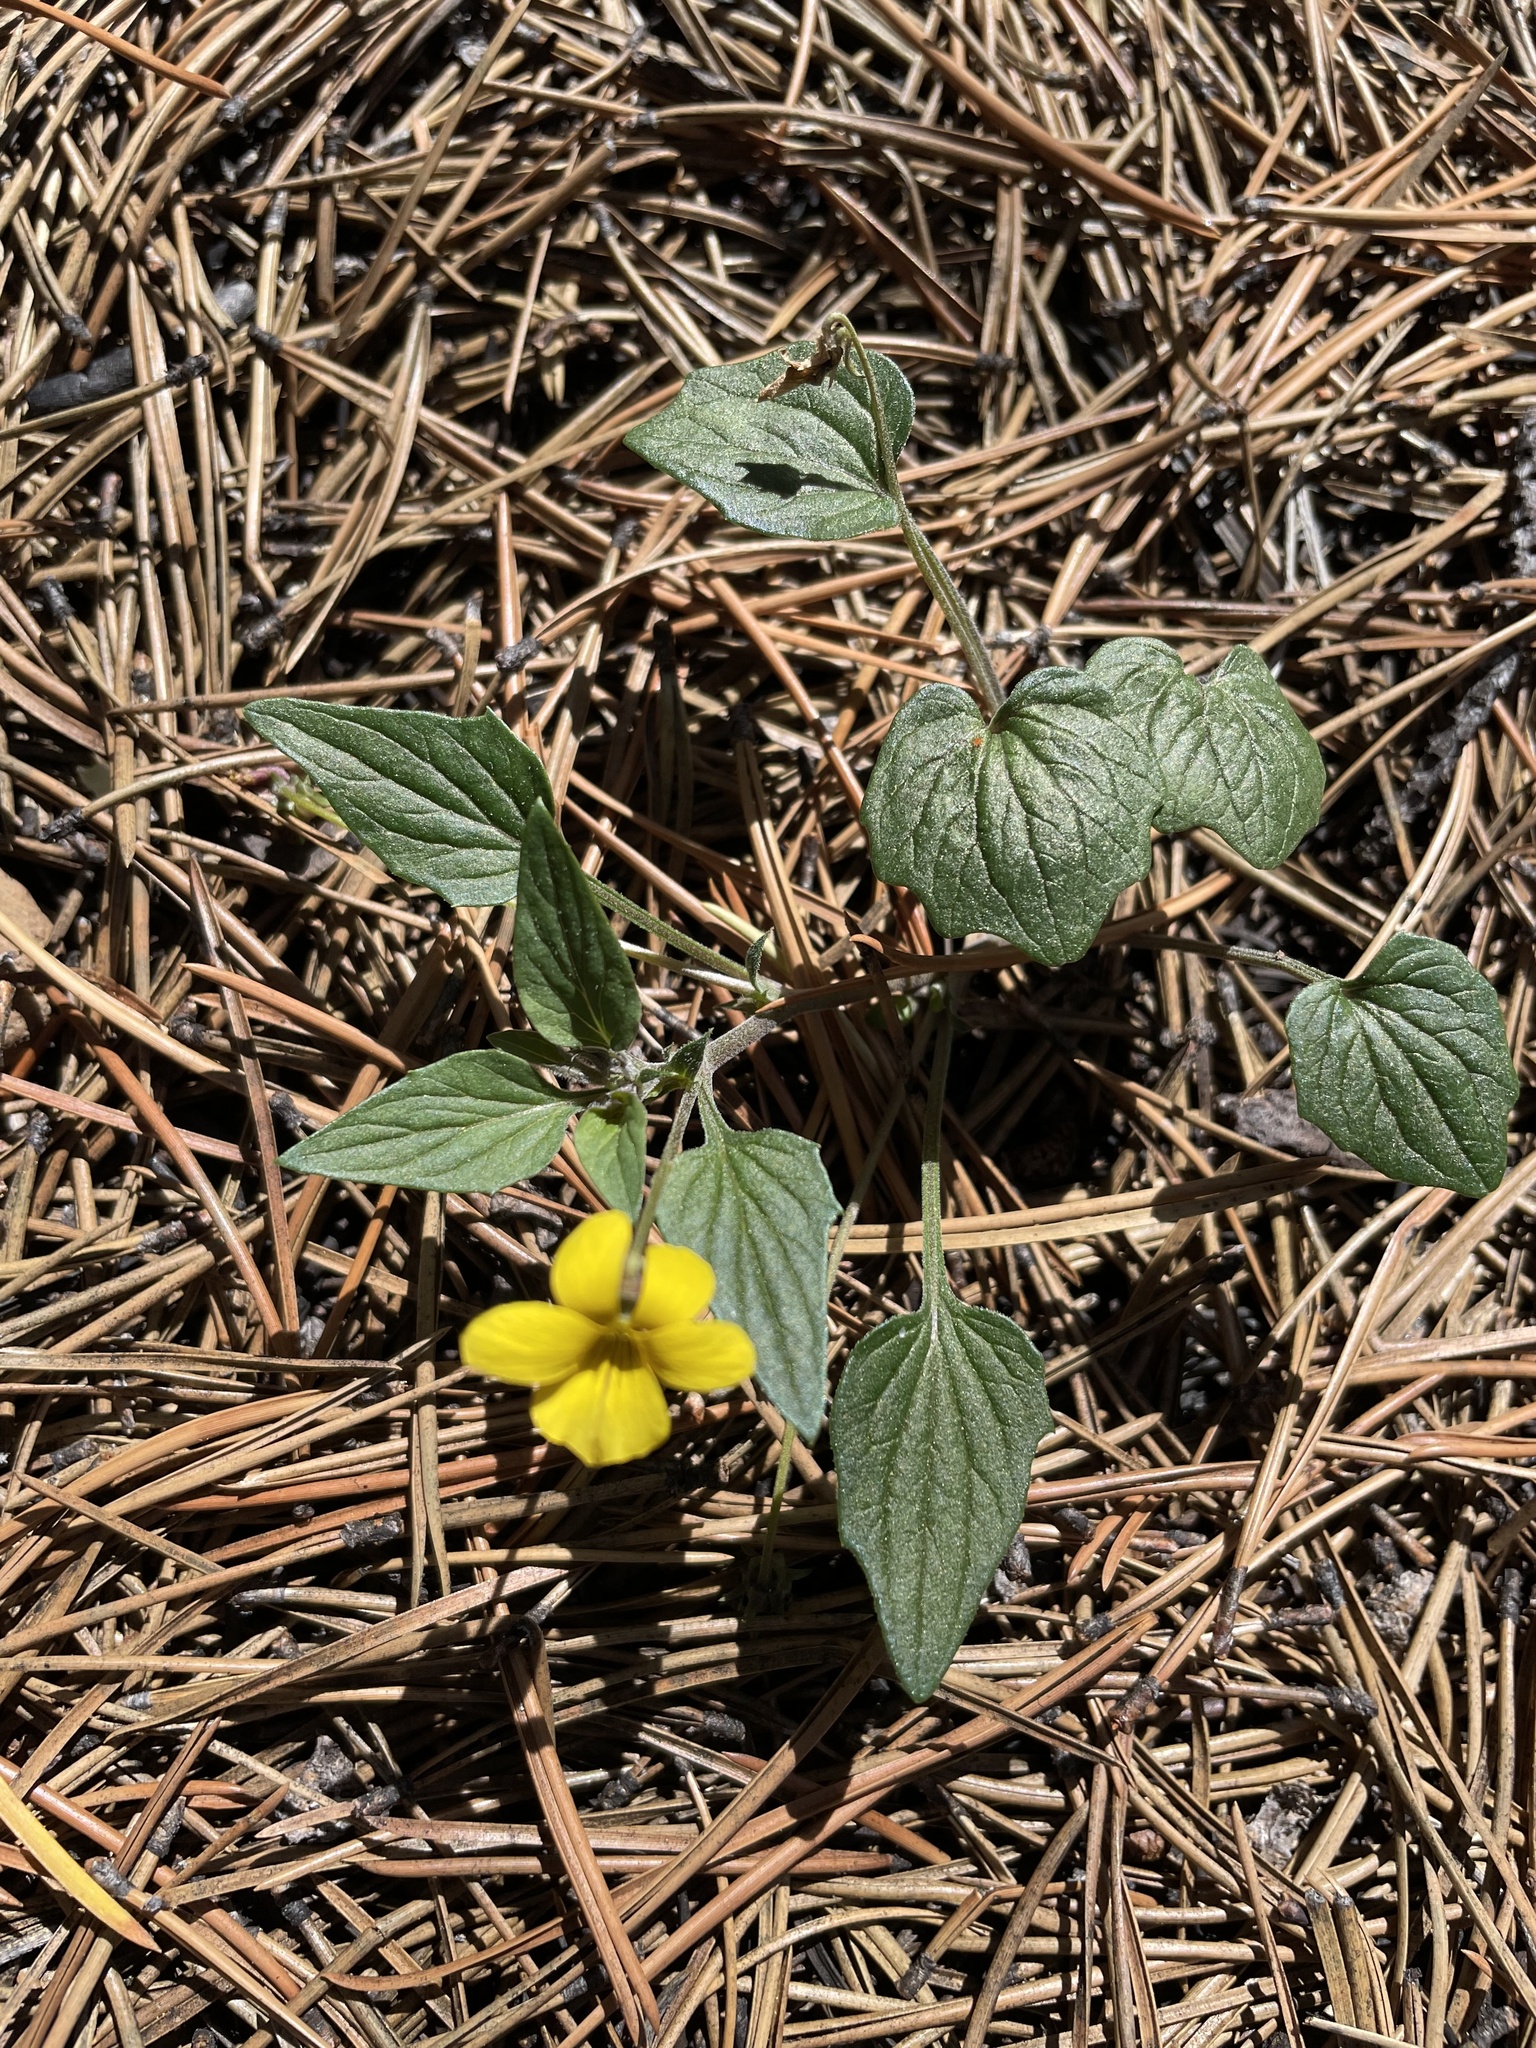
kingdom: Plantae
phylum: Tracheophyta
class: Magnoliopsida
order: Malpighiales
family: Violaceae
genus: Viola
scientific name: Viola purpurea
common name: Pine violet
